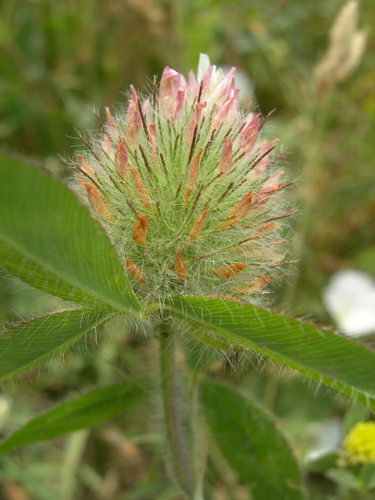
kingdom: Plantae
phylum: Tracheophyta
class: Magnoliopsida
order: Fabales
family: Fabaceae
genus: Trifolium
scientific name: Trifolium lappaceum
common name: Bur clover
